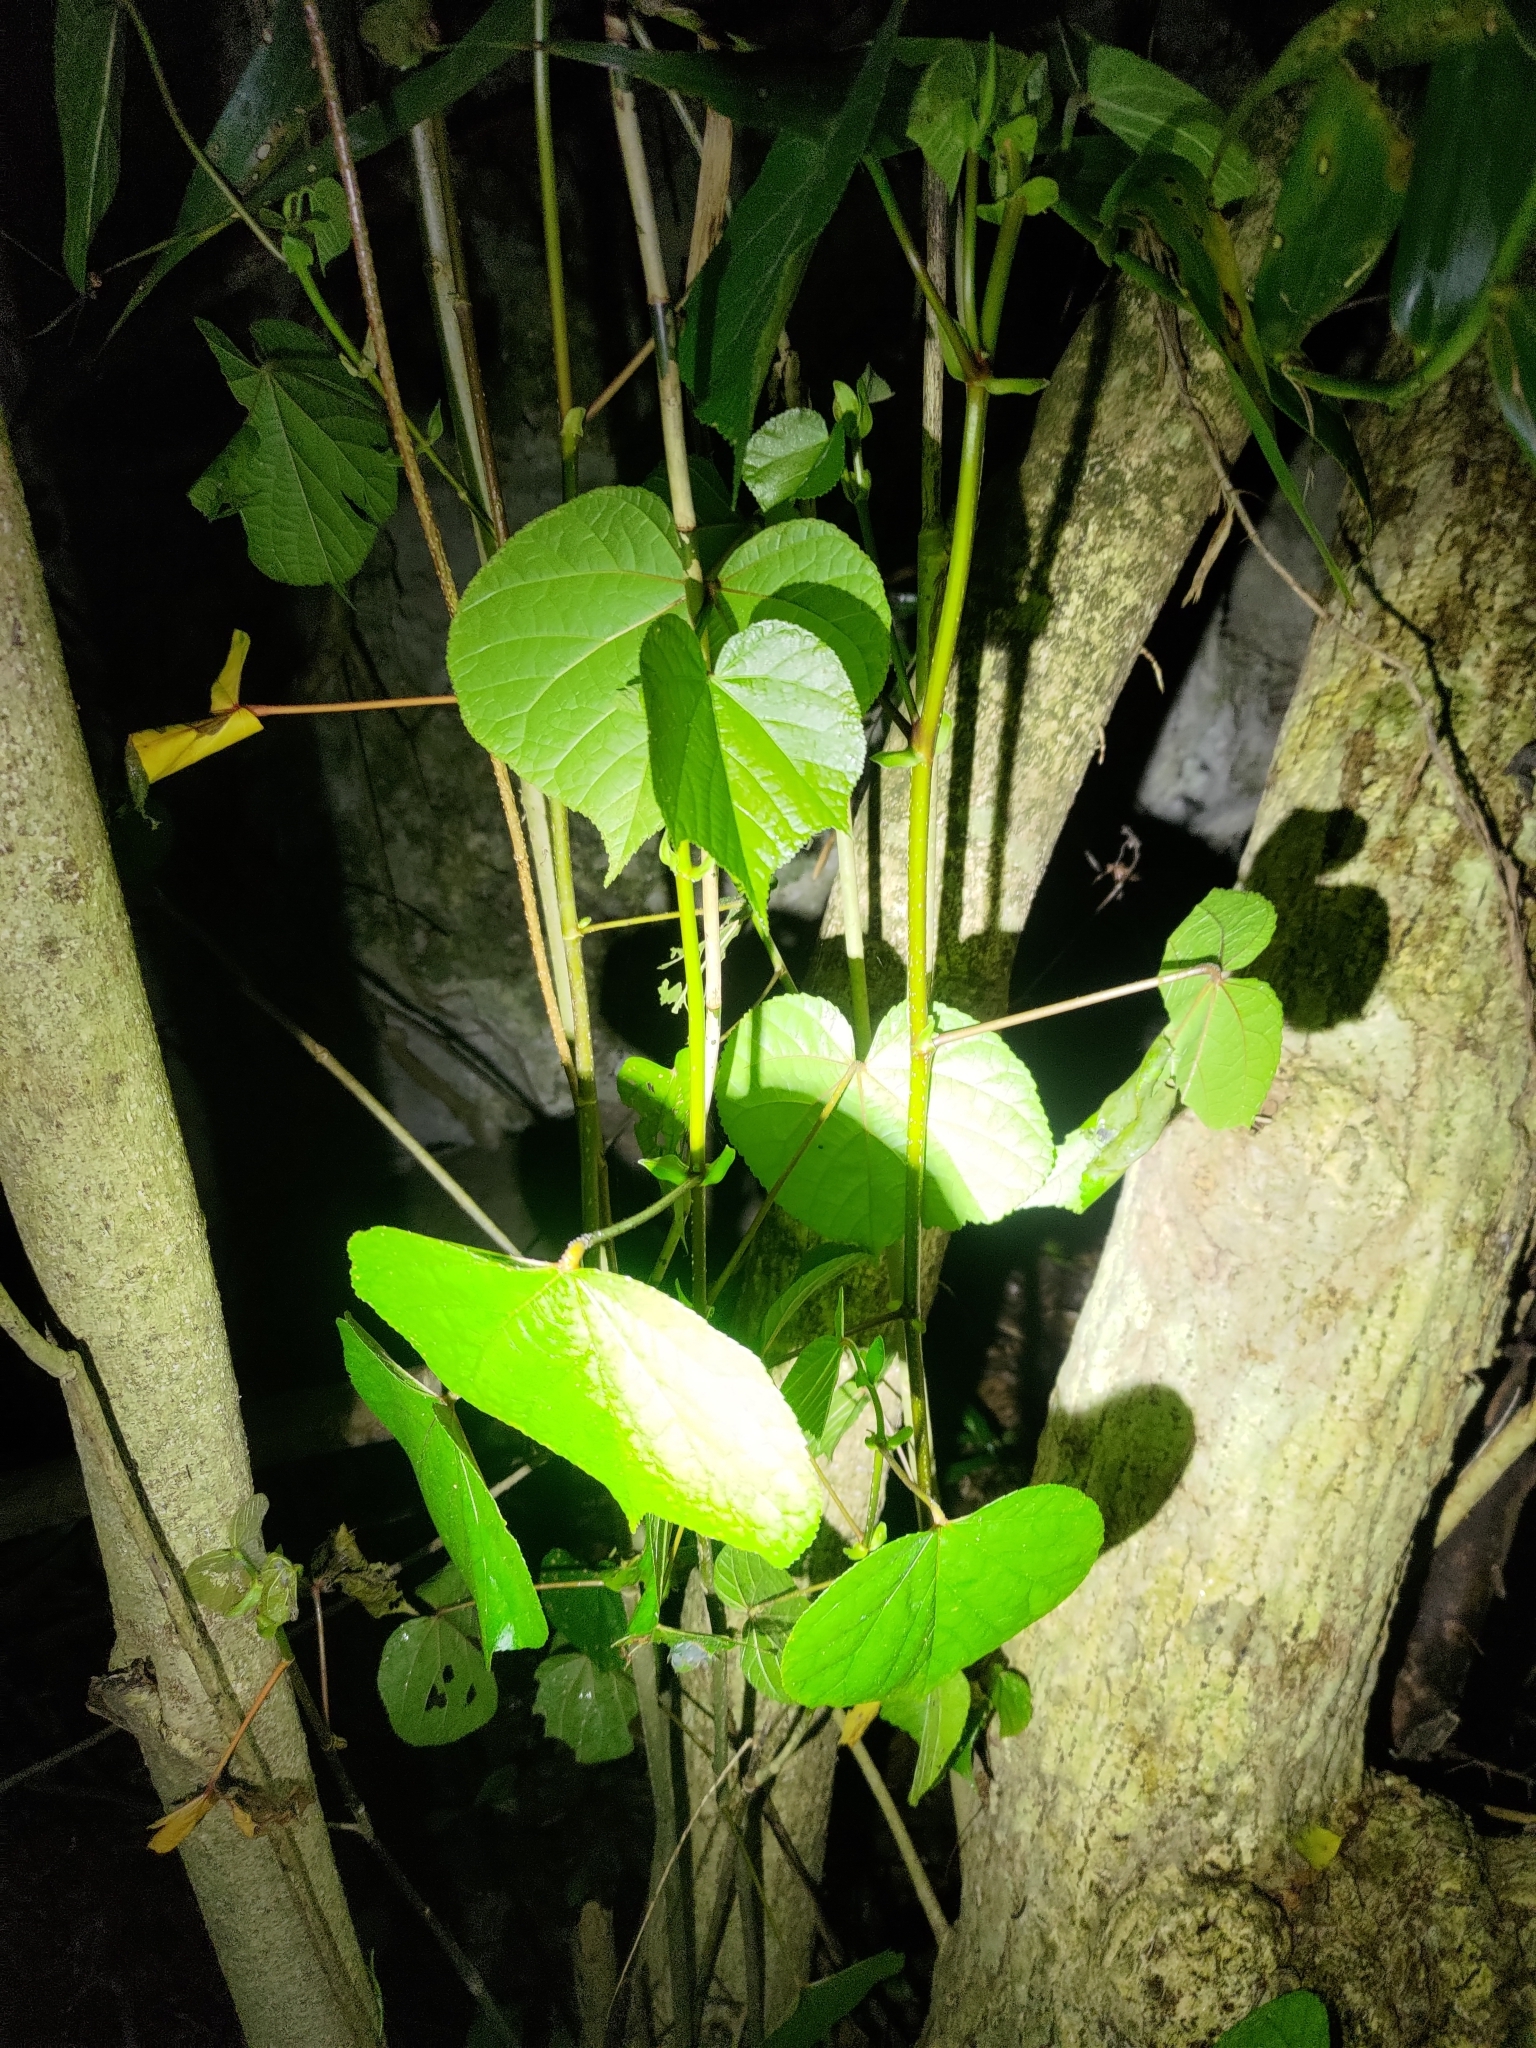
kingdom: Plantae
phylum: Tracheophyta
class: Magnoliopsida
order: Malvales
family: Malvaceae
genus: Talipariti
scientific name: Talipariti tiliaceum
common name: Sea hibiscus
